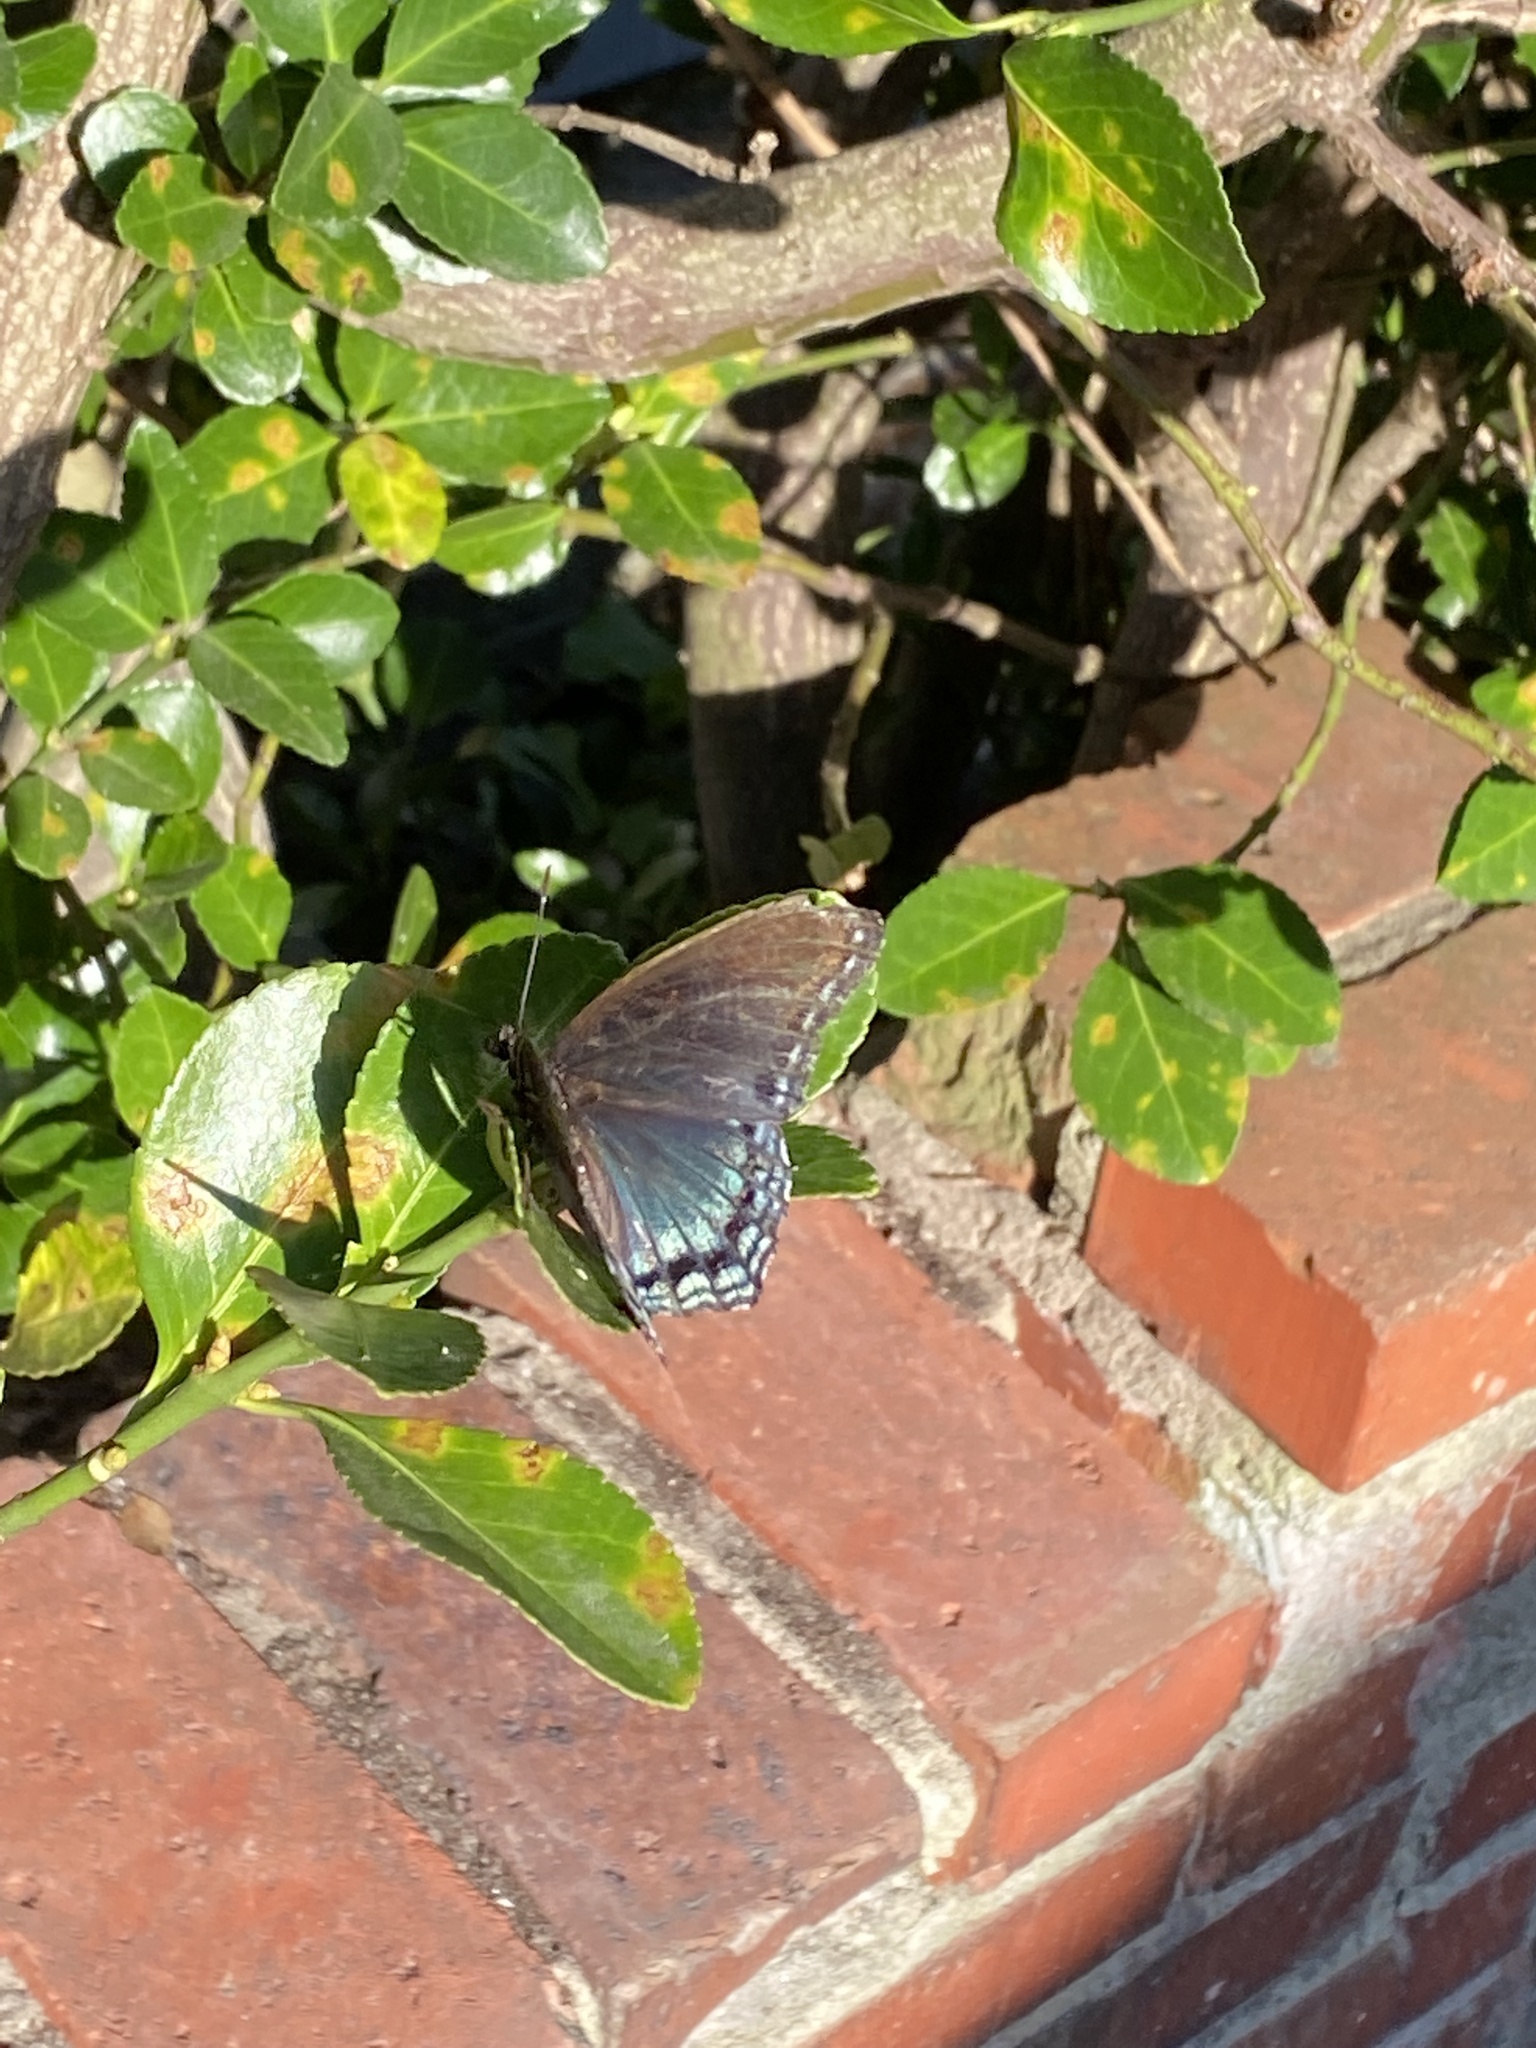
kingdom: Animalia
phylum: Arthropoda
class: Insecta
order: Lepidoptera
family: Nymphalidae
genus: Limenitis
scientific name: Limenitis astyanax
